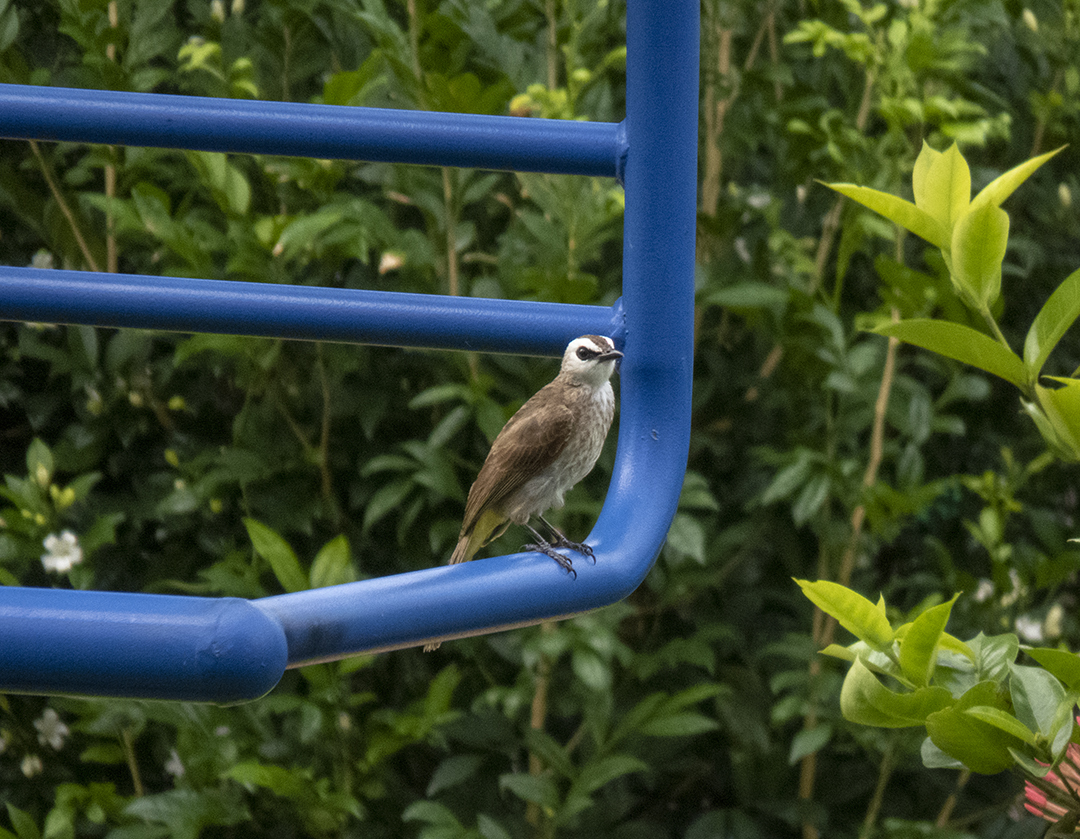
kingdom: Animalia
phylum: Chordata
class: Aves
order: Passeriformes
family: Pycnonotidae
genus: Pycnonotus
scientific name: Pycnonotus goiavier
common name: Yellow-vented bulbul
